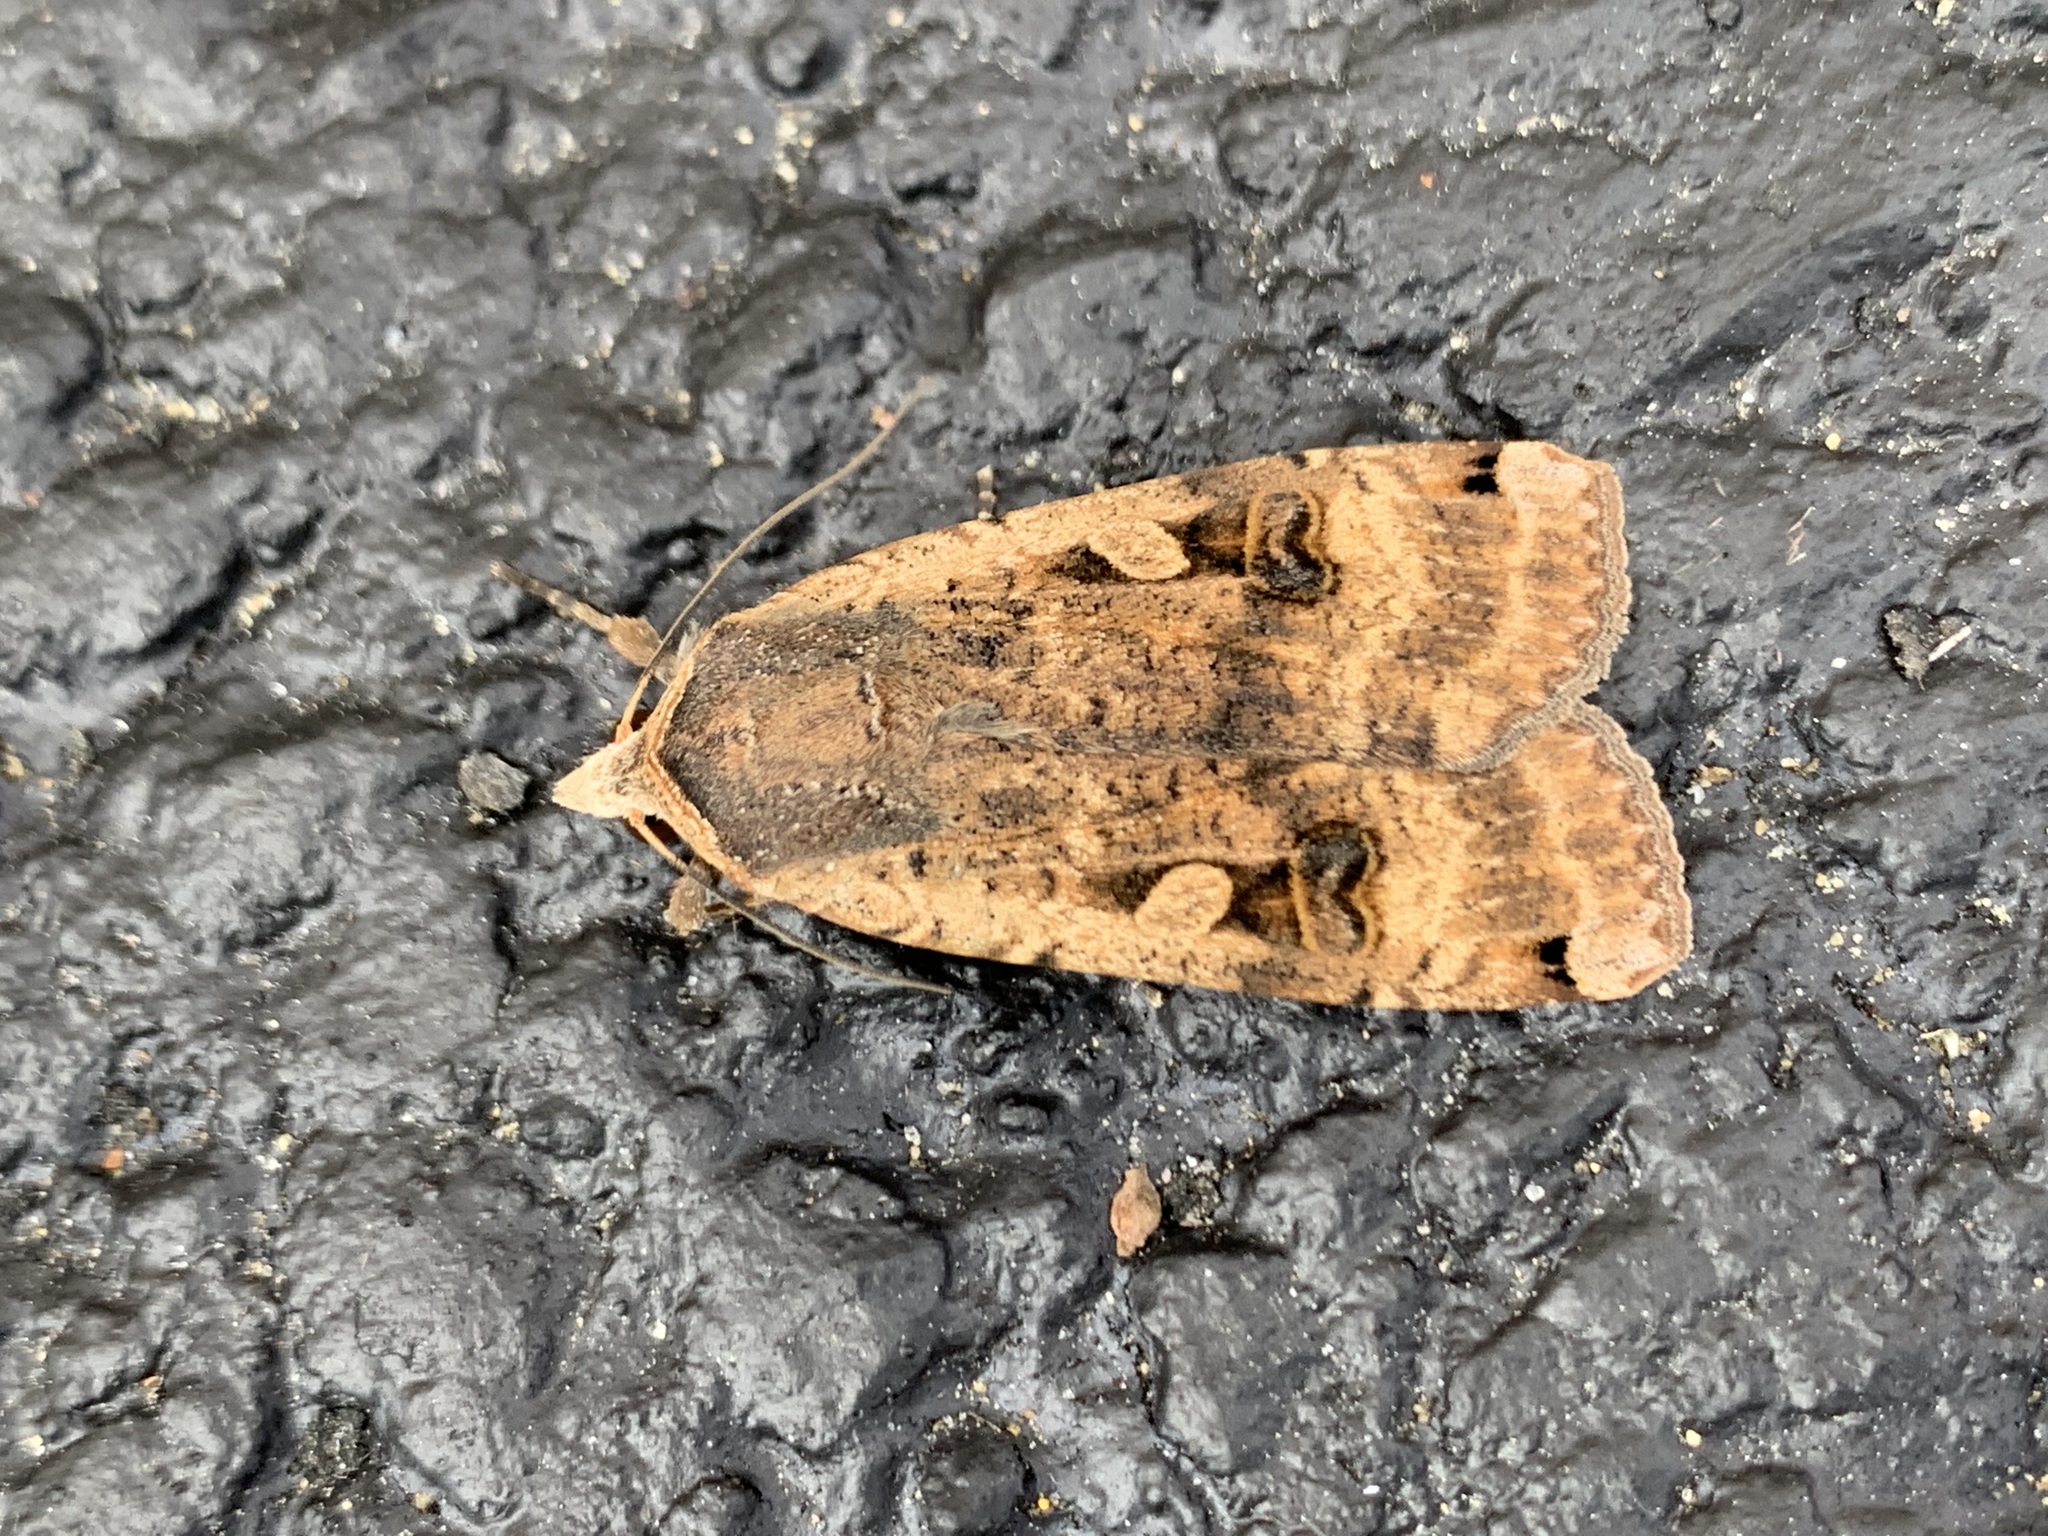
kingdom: Animalia
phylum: Arthropoda
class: Insecta
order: Lepidoptera
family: Noctuidae
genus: Noctua
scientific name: Noctua pronuba
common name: Large yellow underwing
